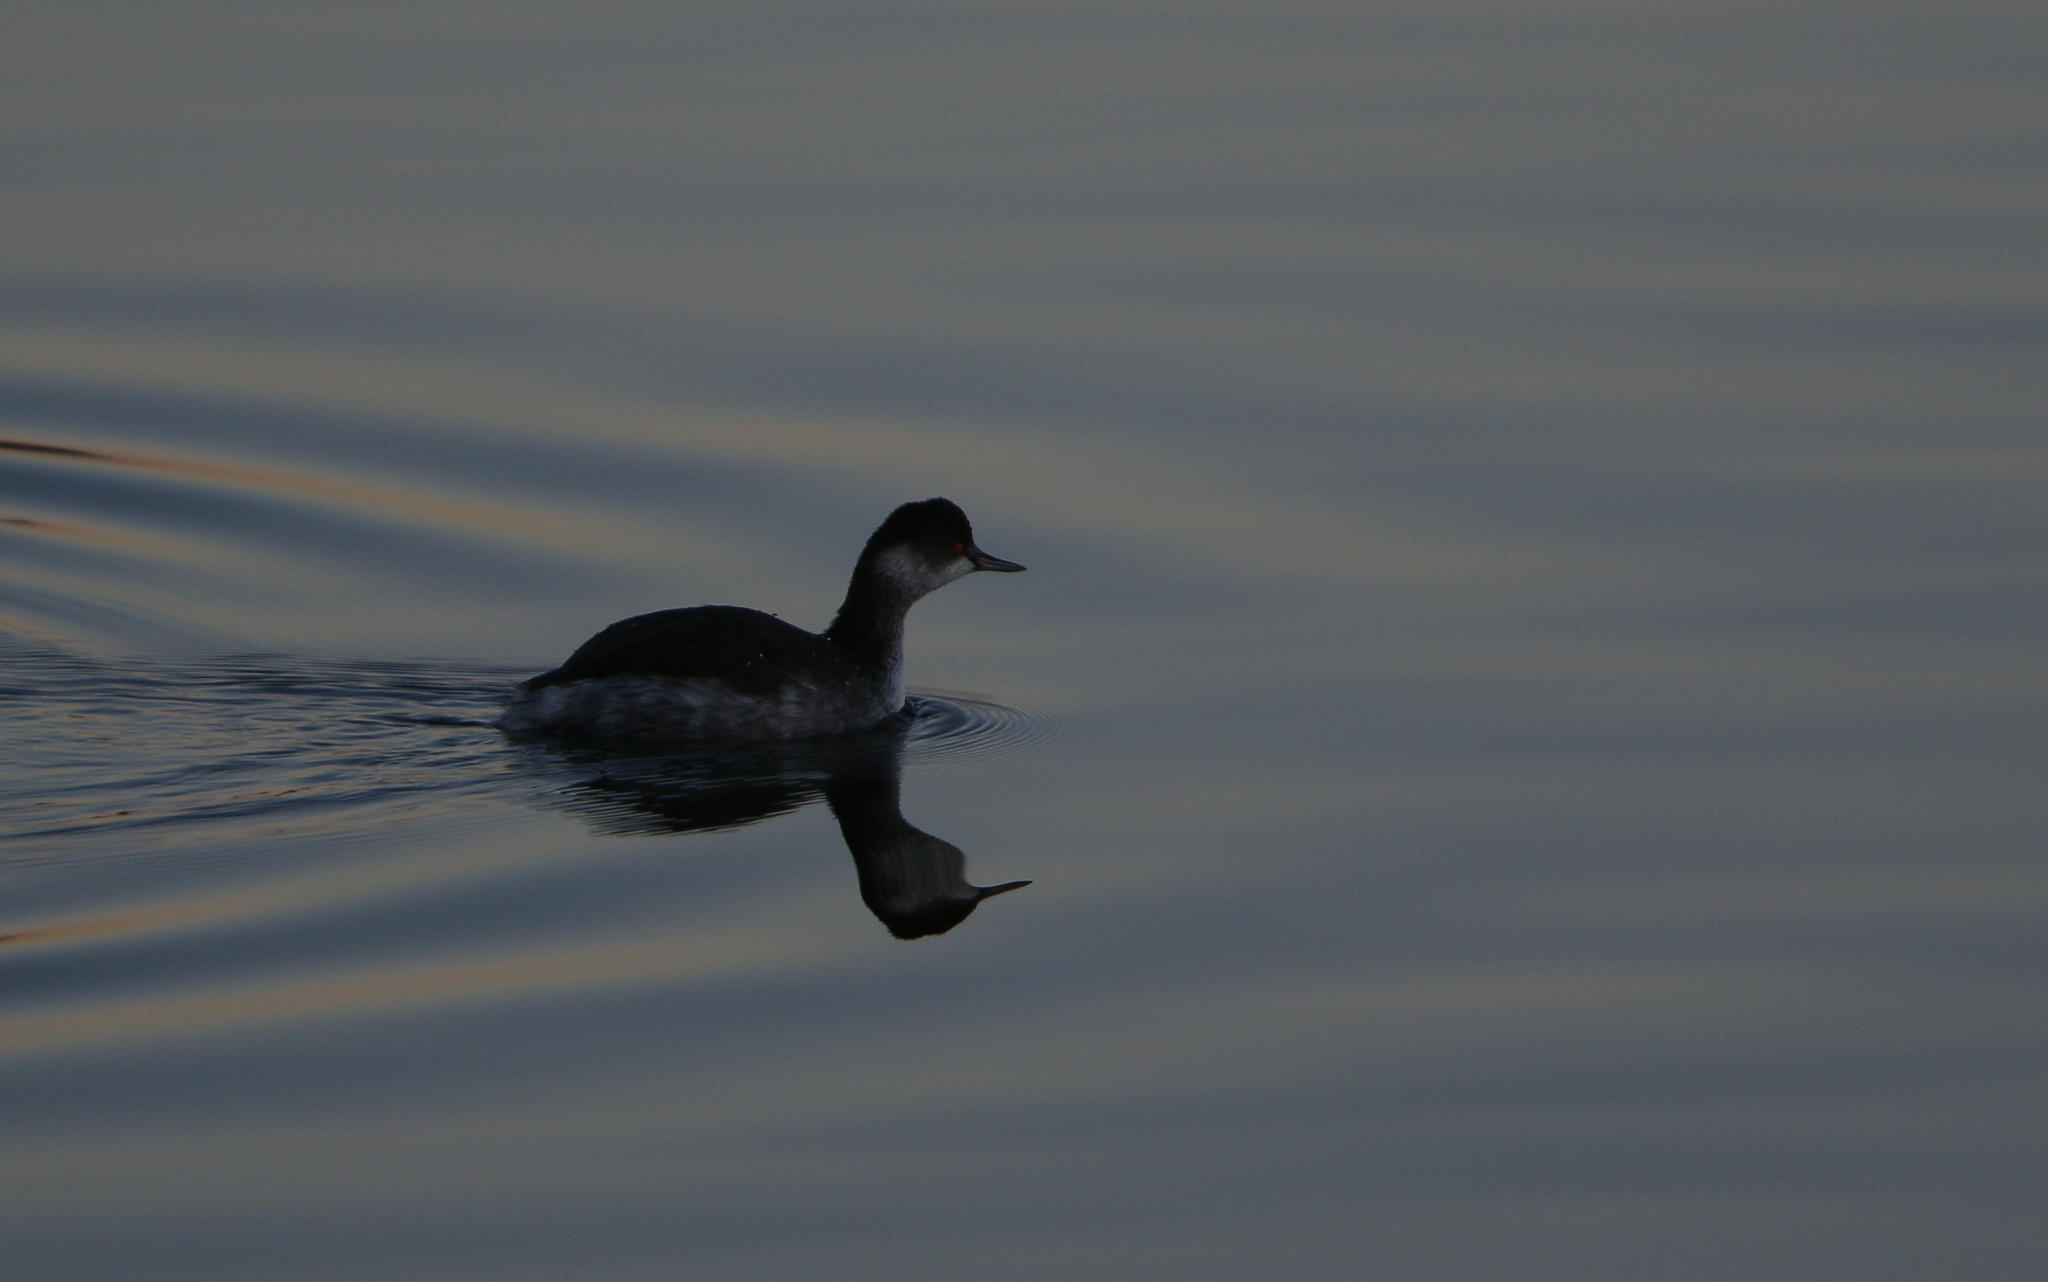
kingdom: Animalia
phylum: Chordata
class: Aves
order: Podicipediformes
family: Podicipedidae
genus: Podiceps
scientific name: Podiceps nigricollis
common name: Black-necked grebe
